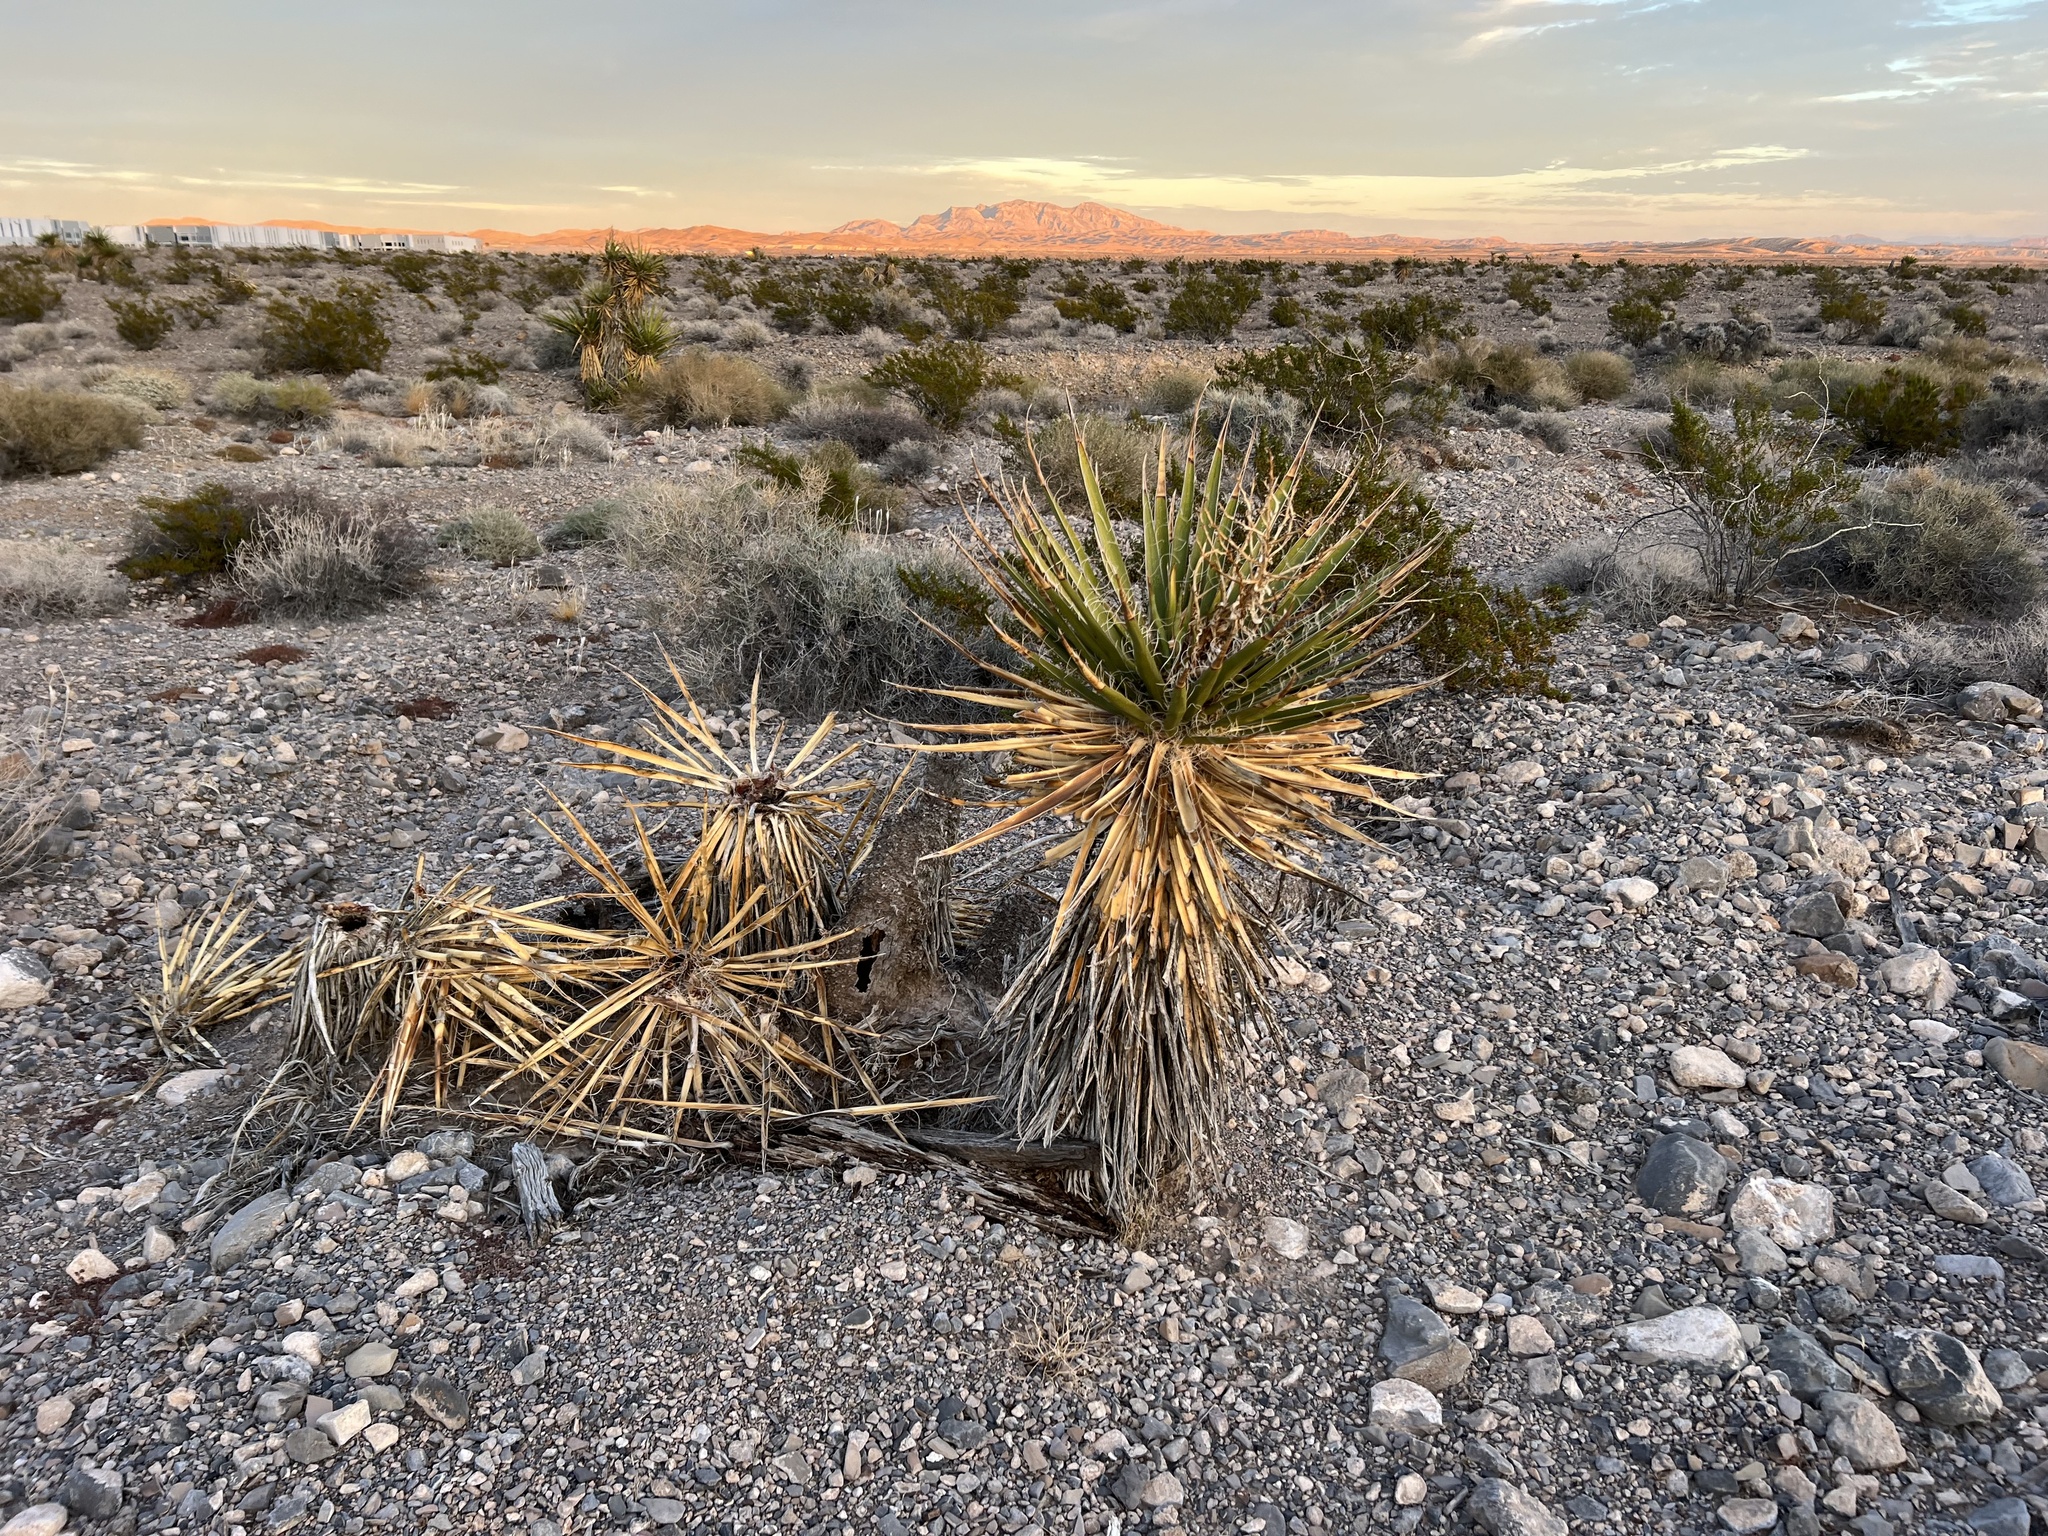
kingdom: Plantae
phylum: Tracheophyta
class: Liliopsida
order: Asparagales
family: Asparagaceae
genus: Yucca
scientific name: Yucca schidigera
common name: Mojave yucca
